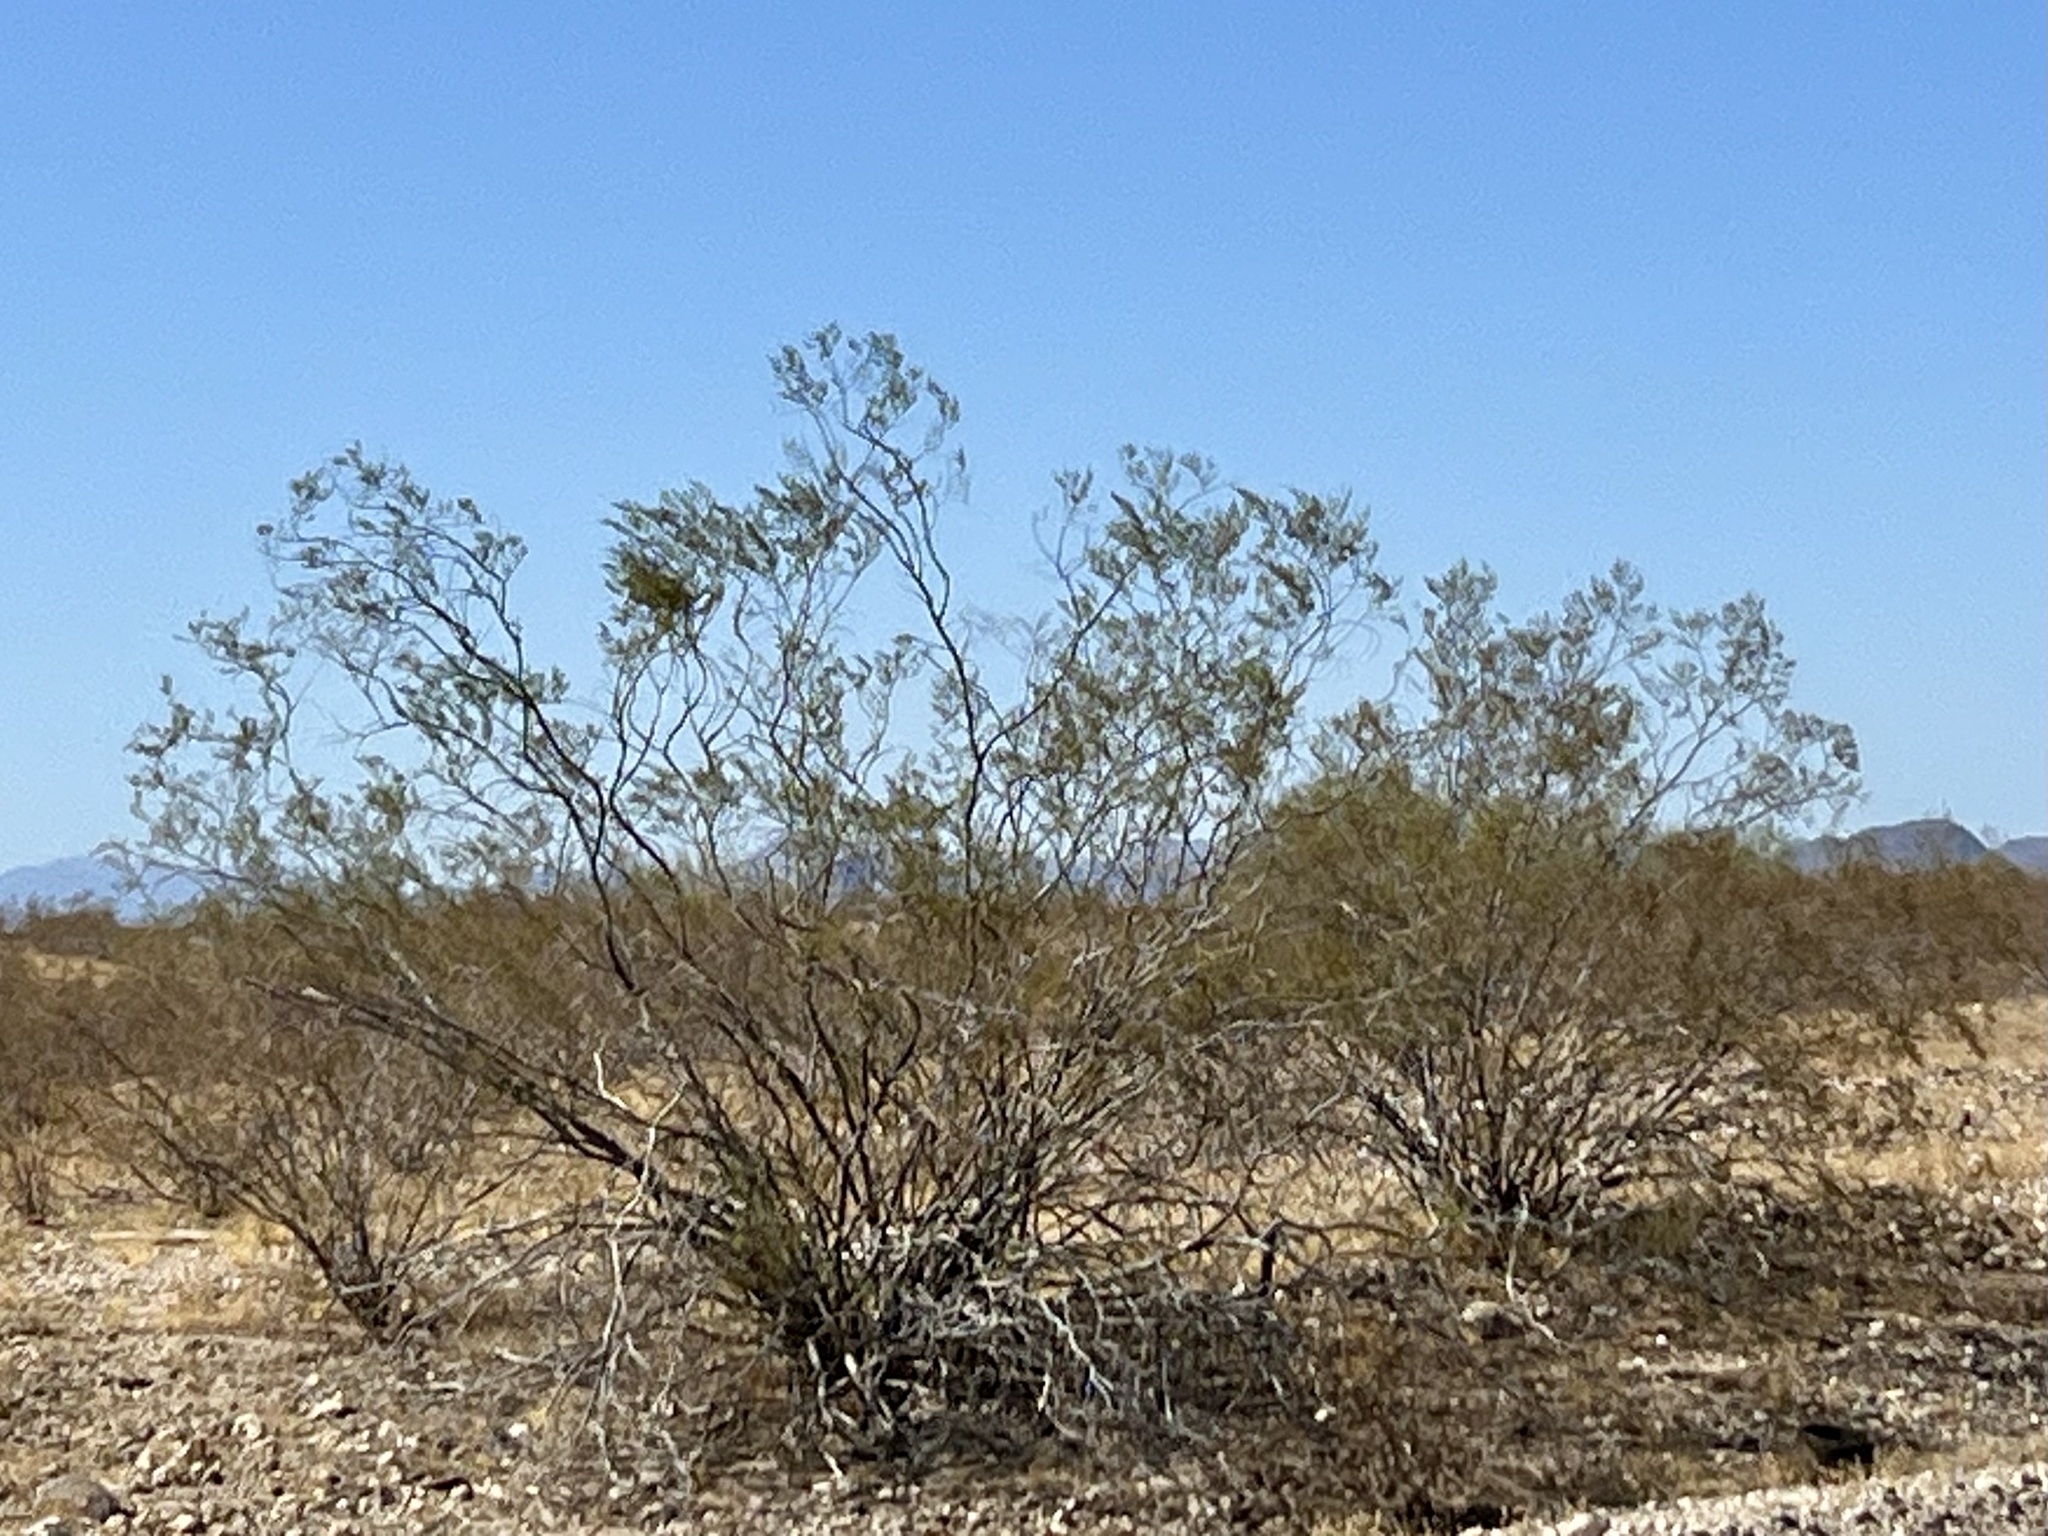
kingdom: Plantae
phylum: Tracheophyta
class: Magnoliopsida
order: Zygophyllales
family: Zygophyllaceae
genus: Larrea
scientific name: Larrea tridentata
